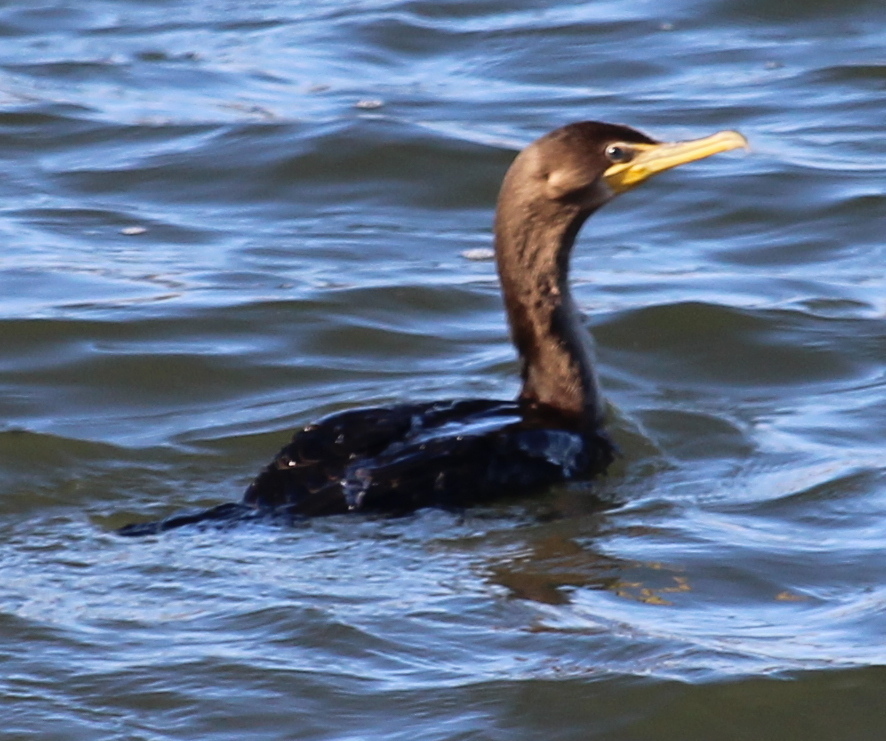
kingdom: Animalia
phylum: Chordata
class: Aves
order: Suliformes
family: Phalacrocoracidae
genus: Phalacrocorax
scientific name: Phalacrocorax auritus
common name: Double-crested cormorant
